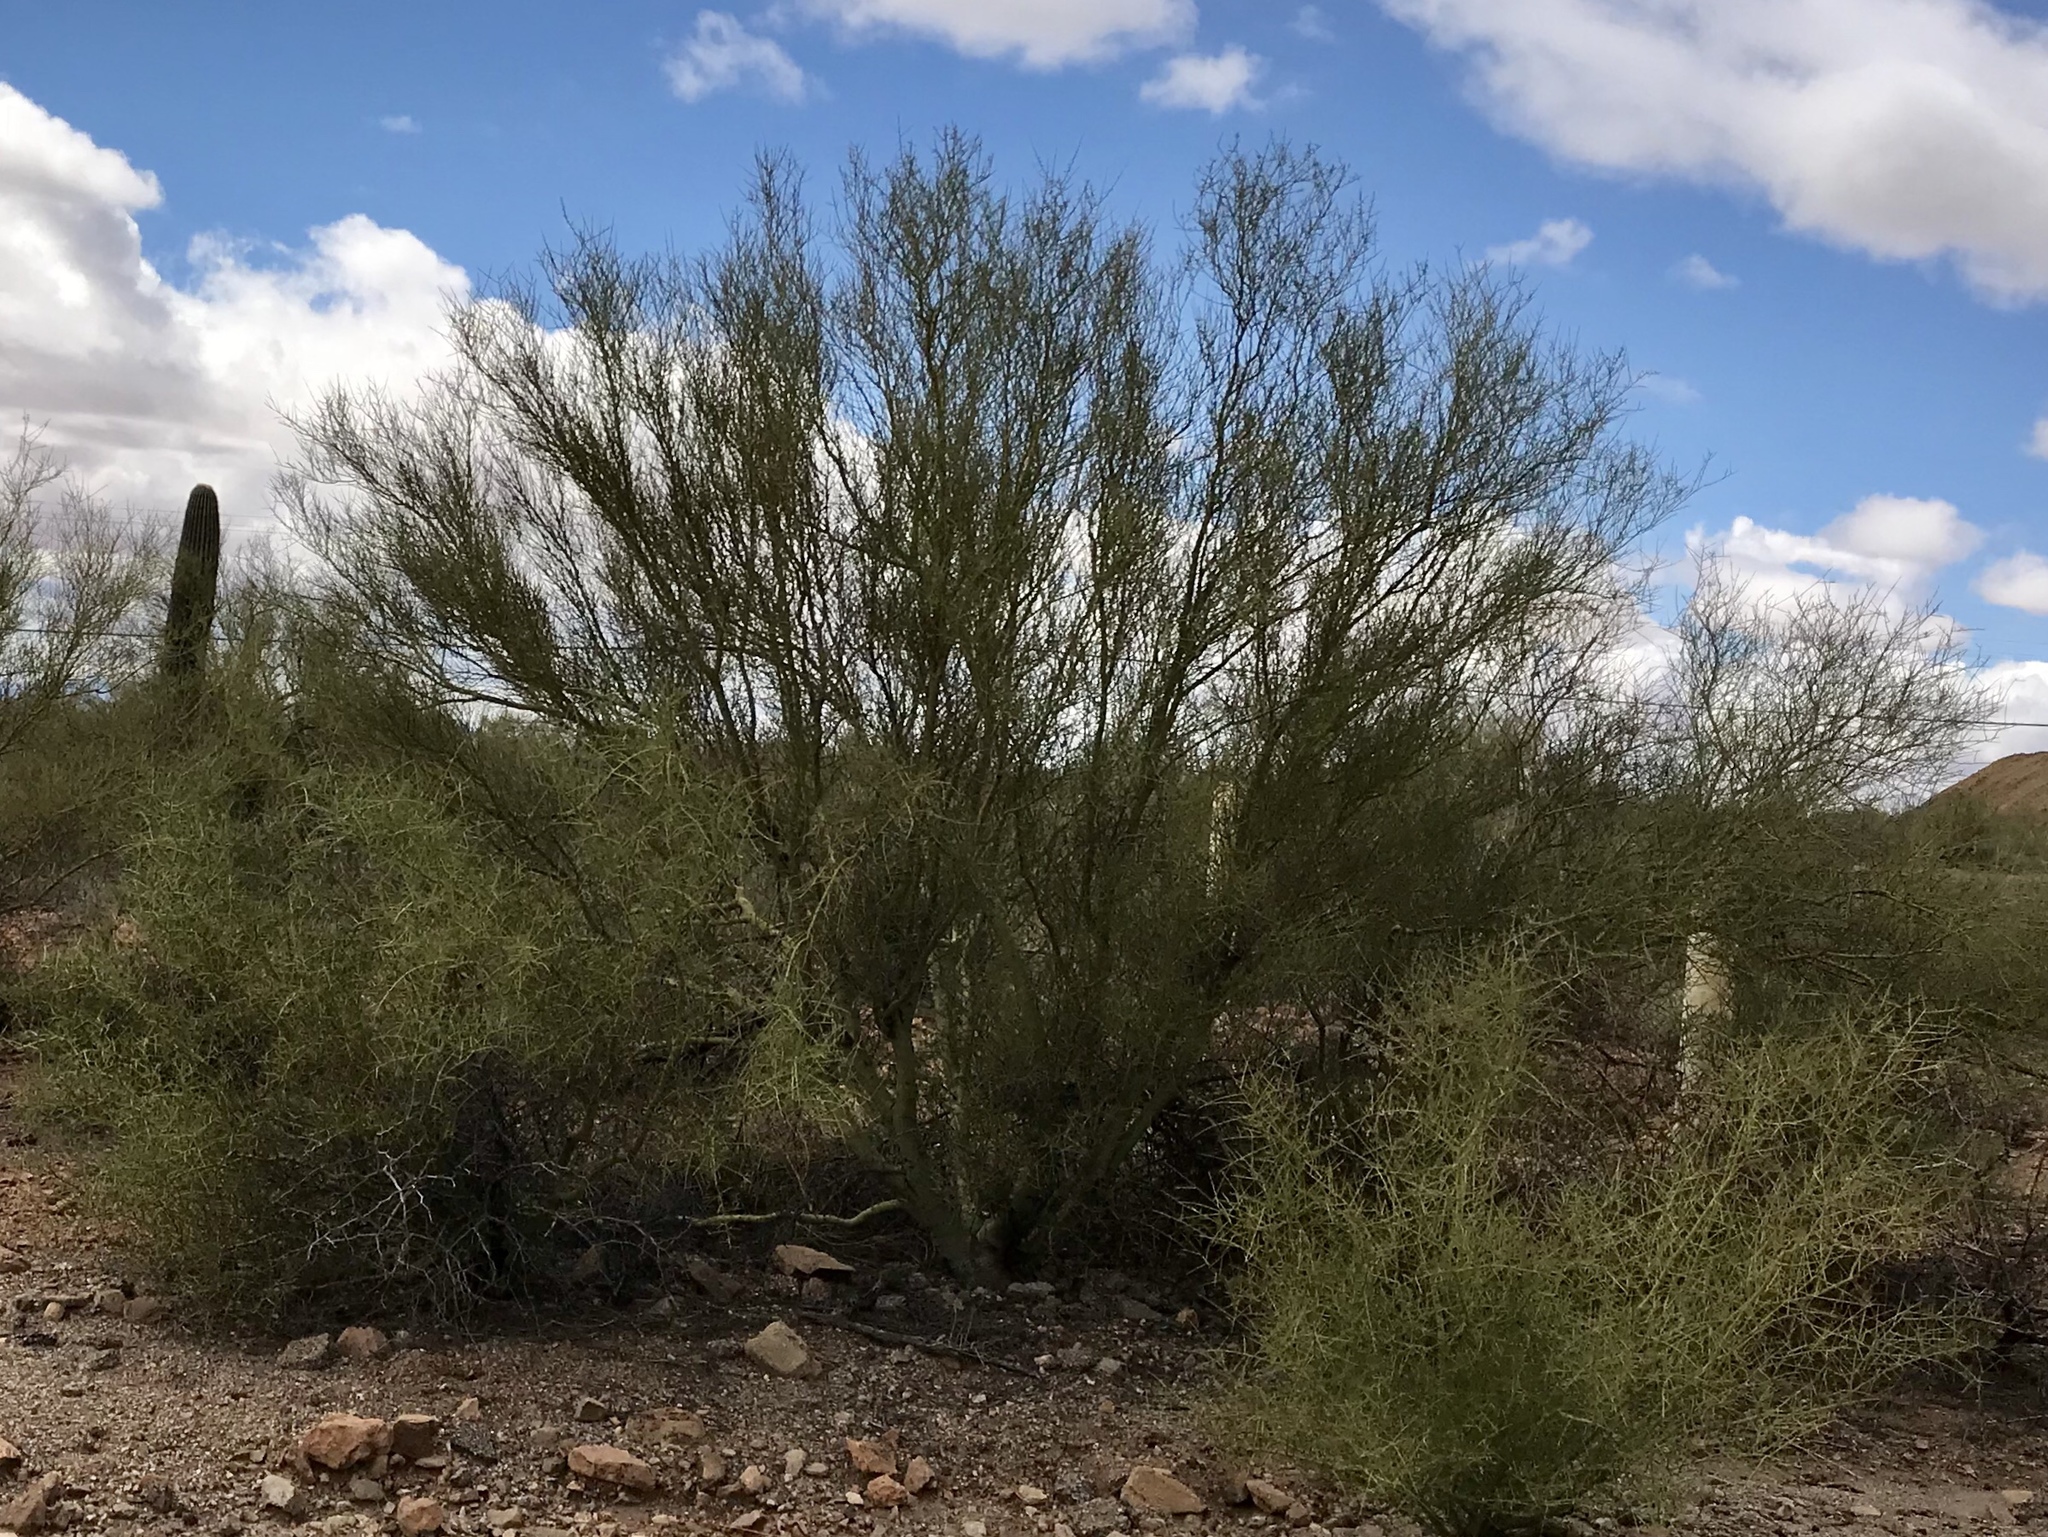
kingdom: Plantae
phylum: Tracheophyta
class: Magnoliopsida
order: Fabales
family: Fabaceae
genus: Parkinsonia
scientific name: Parkinsonia microphylla
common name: Yellow paloverde
